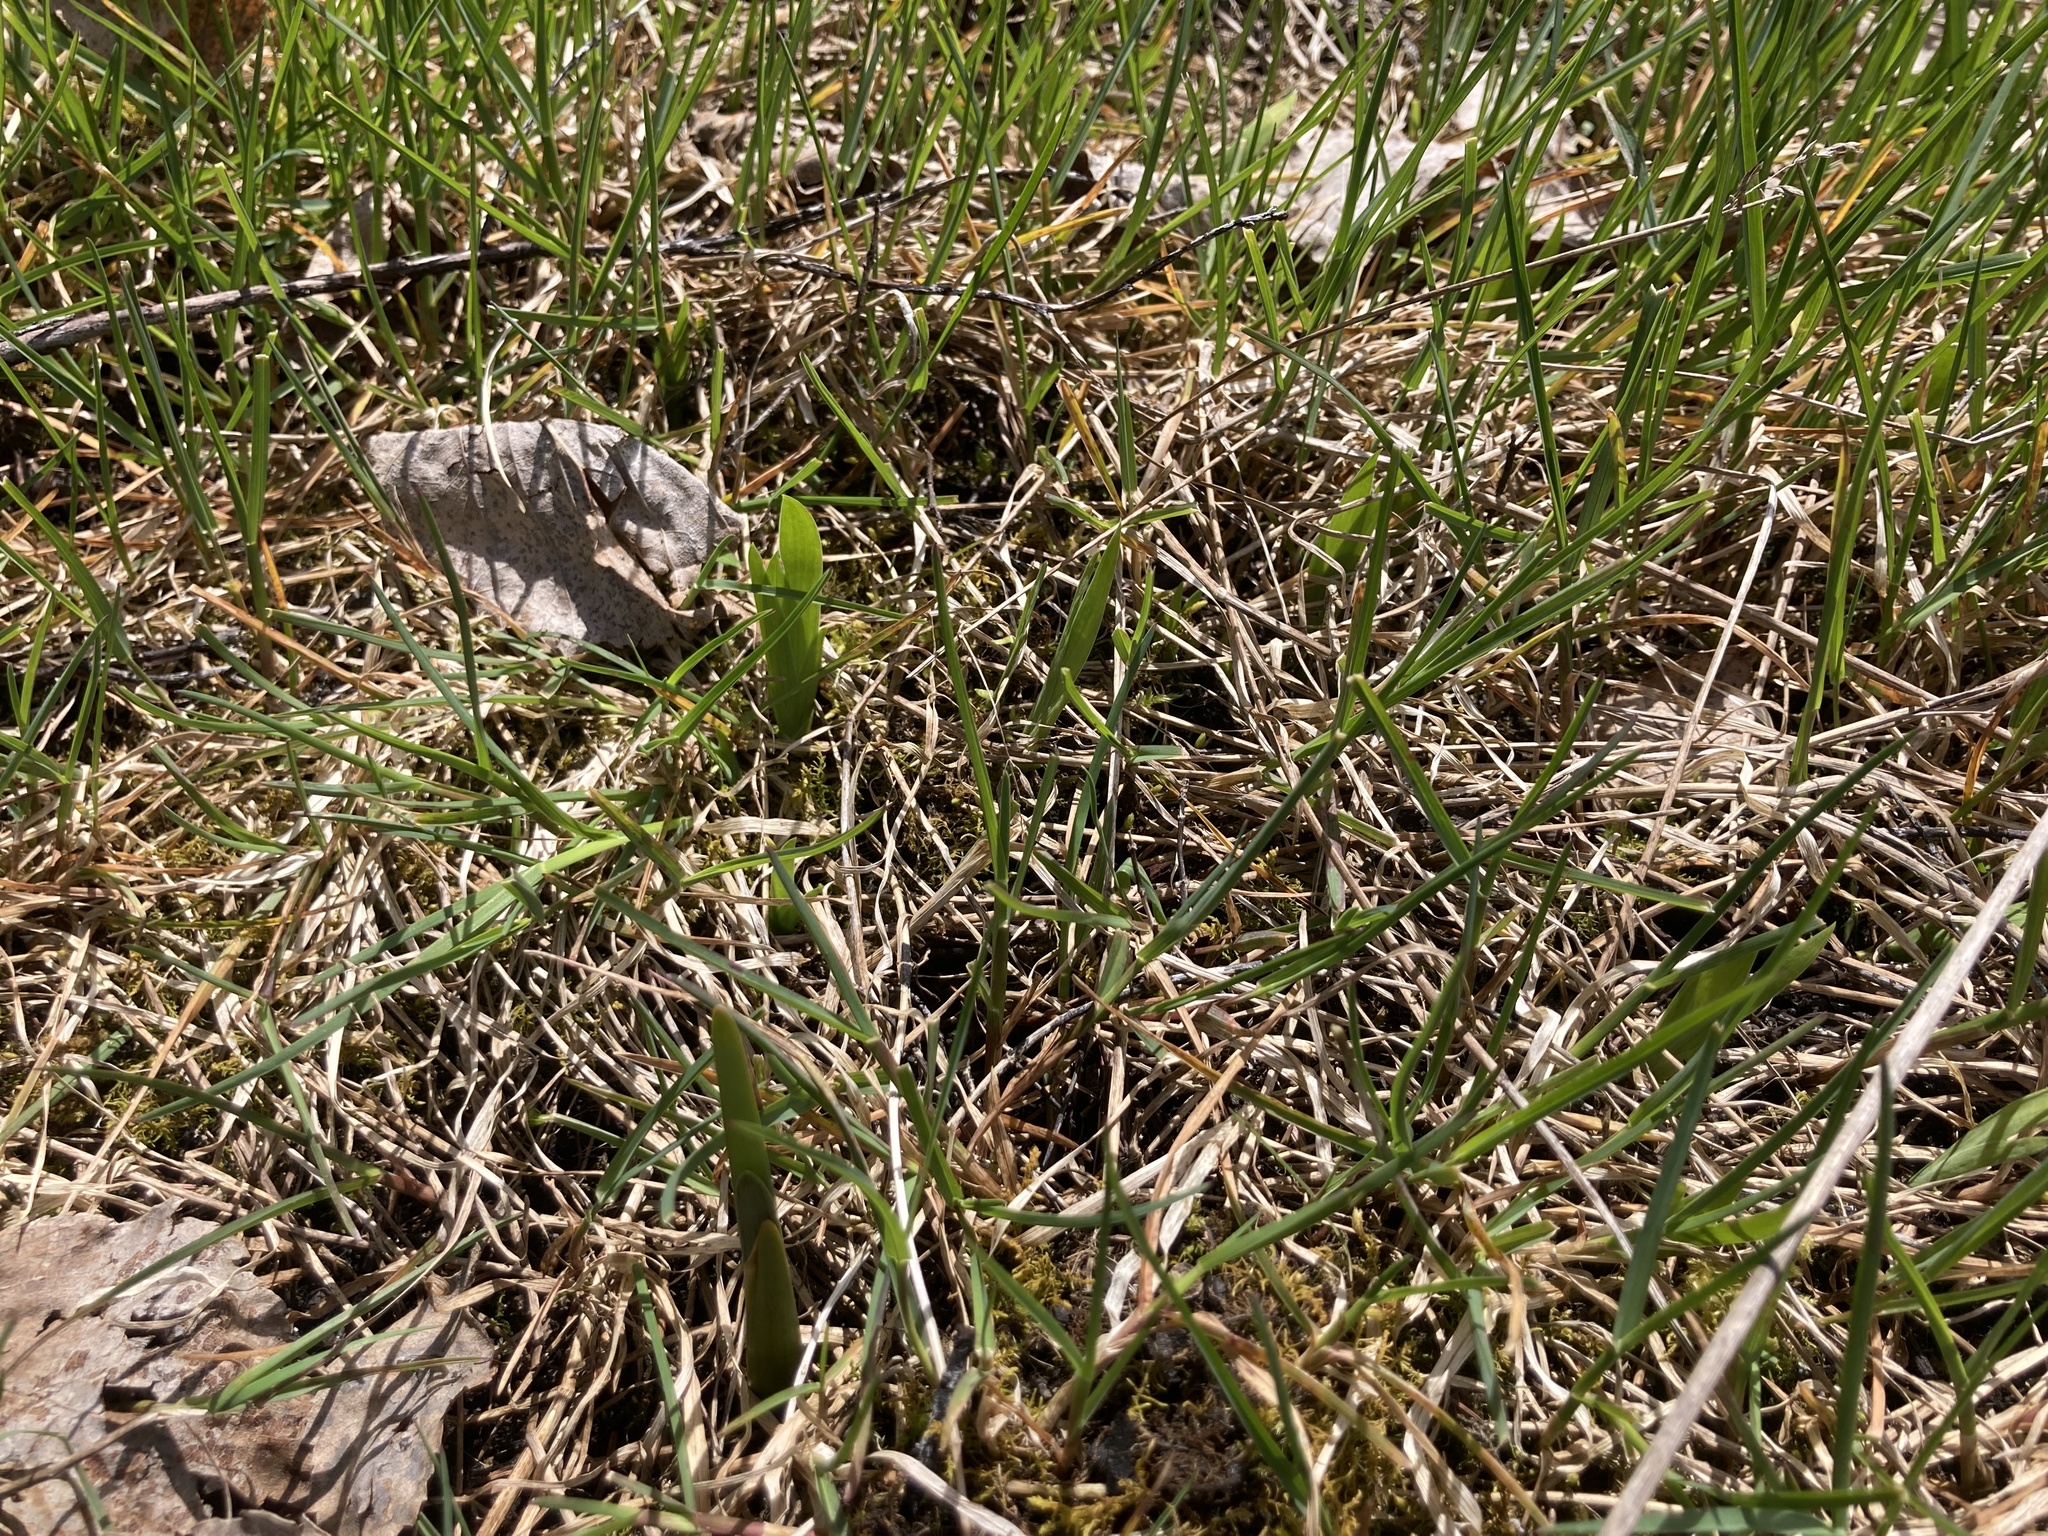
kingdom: Plantae
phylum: Tracheophyta
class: Liliopsida
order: Asparagales
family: Iridaceae
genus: Iris
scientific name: Iris lacustris
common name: Dwarf lake iris
